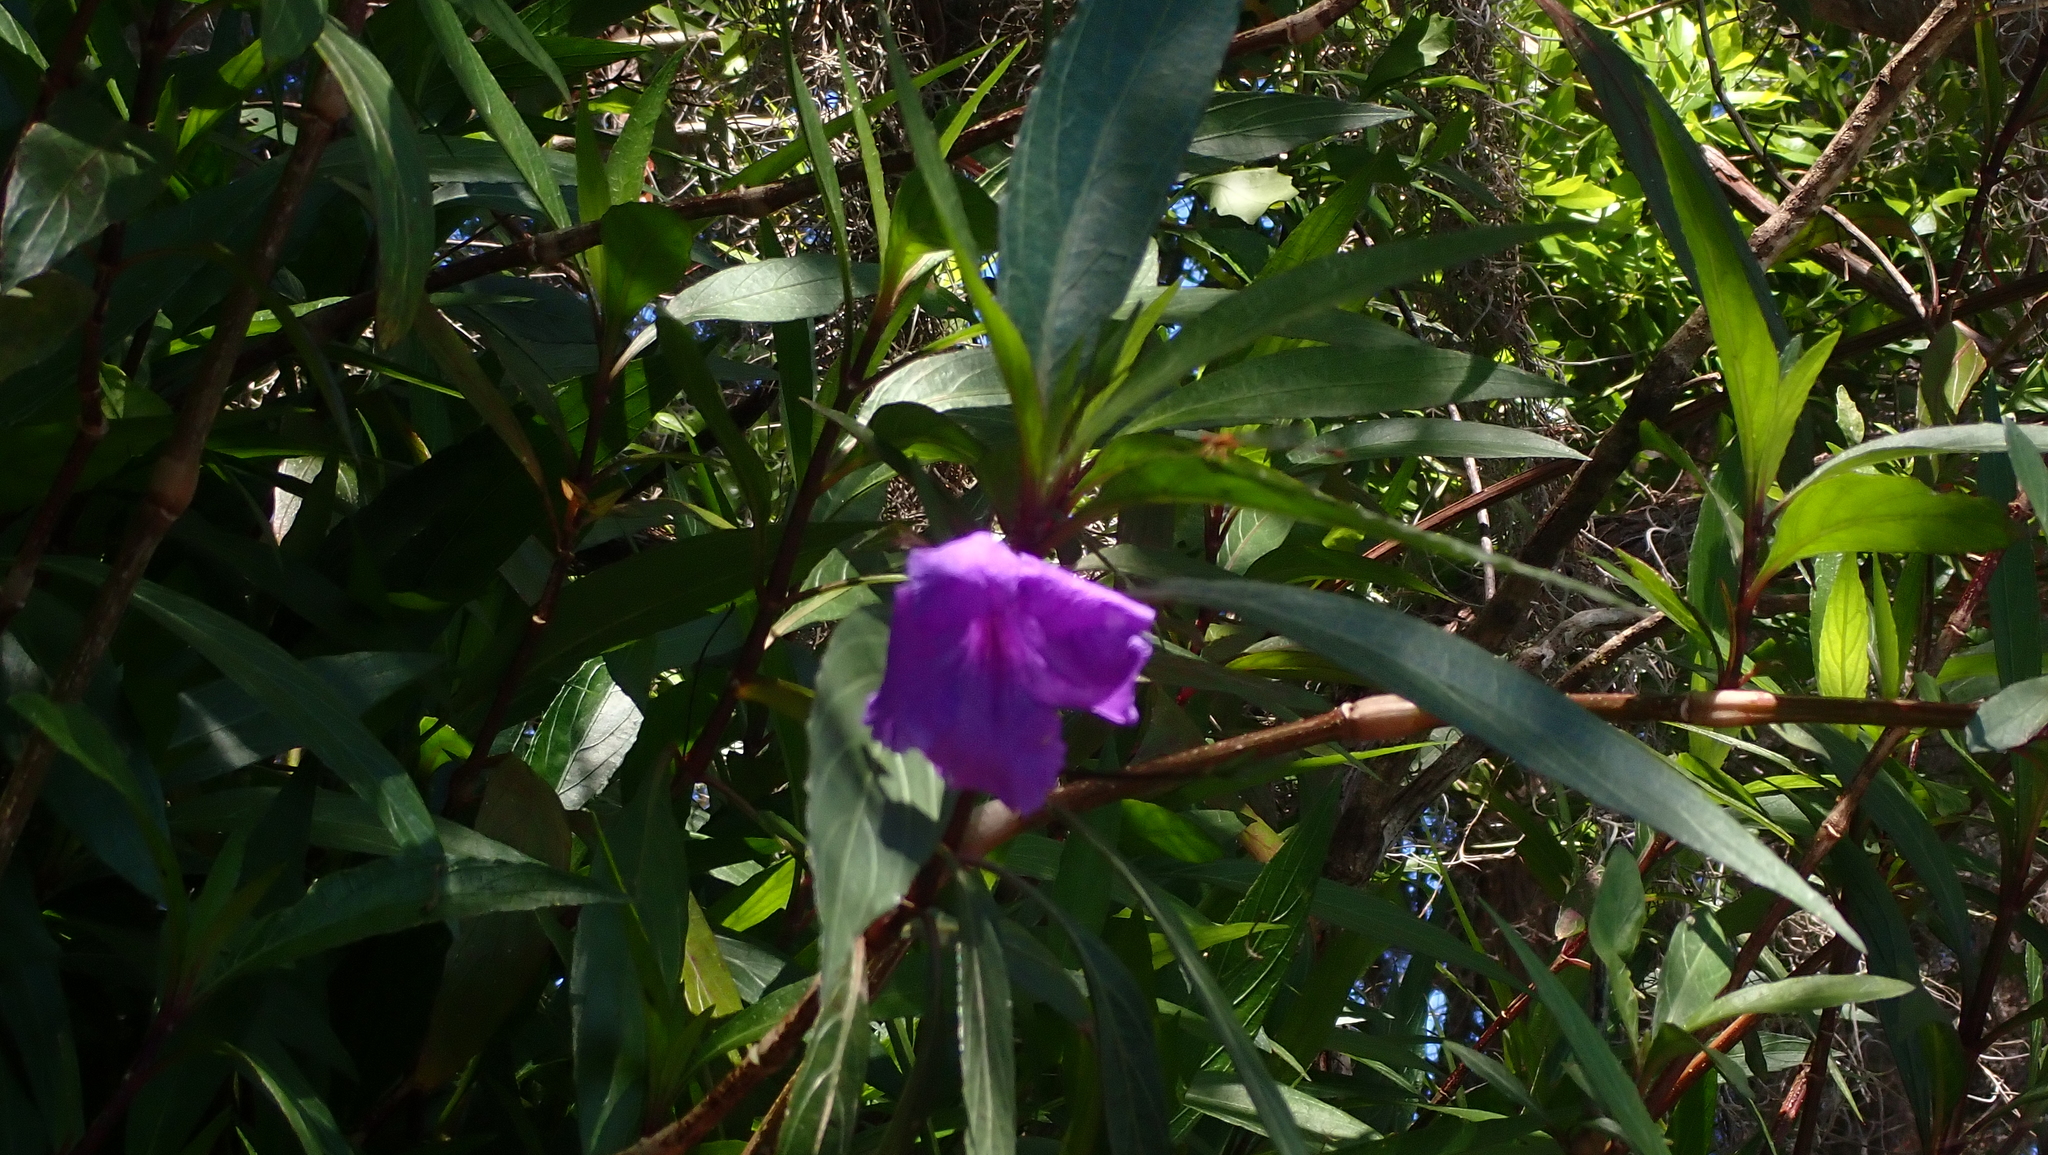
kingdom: Plantae
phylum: Tracheophyta
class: Magnoliopsida
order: Lamiales
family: Acanthaceae
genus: Ruellia
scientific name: Ruellia simplex
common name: Softseed wild petunia
